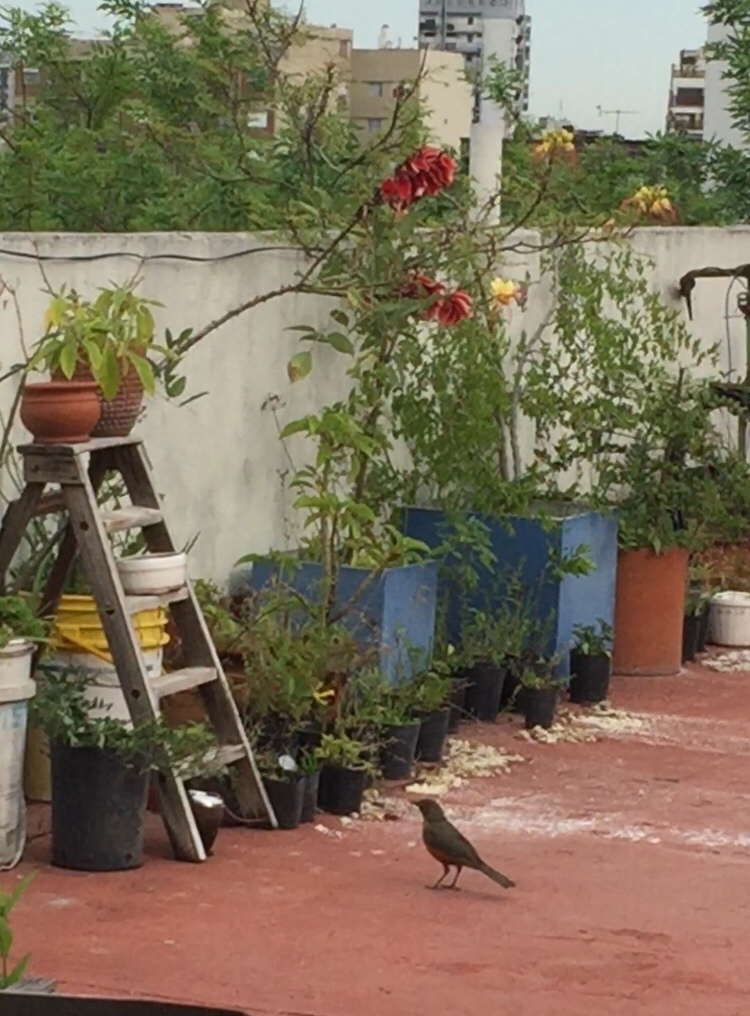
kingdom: Animalia
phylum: Chordata
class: Aves
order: Passeriformes
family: Turdidae
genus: Turdus
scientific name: Turdus rufiventris
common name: Rufous-bellied thrush
